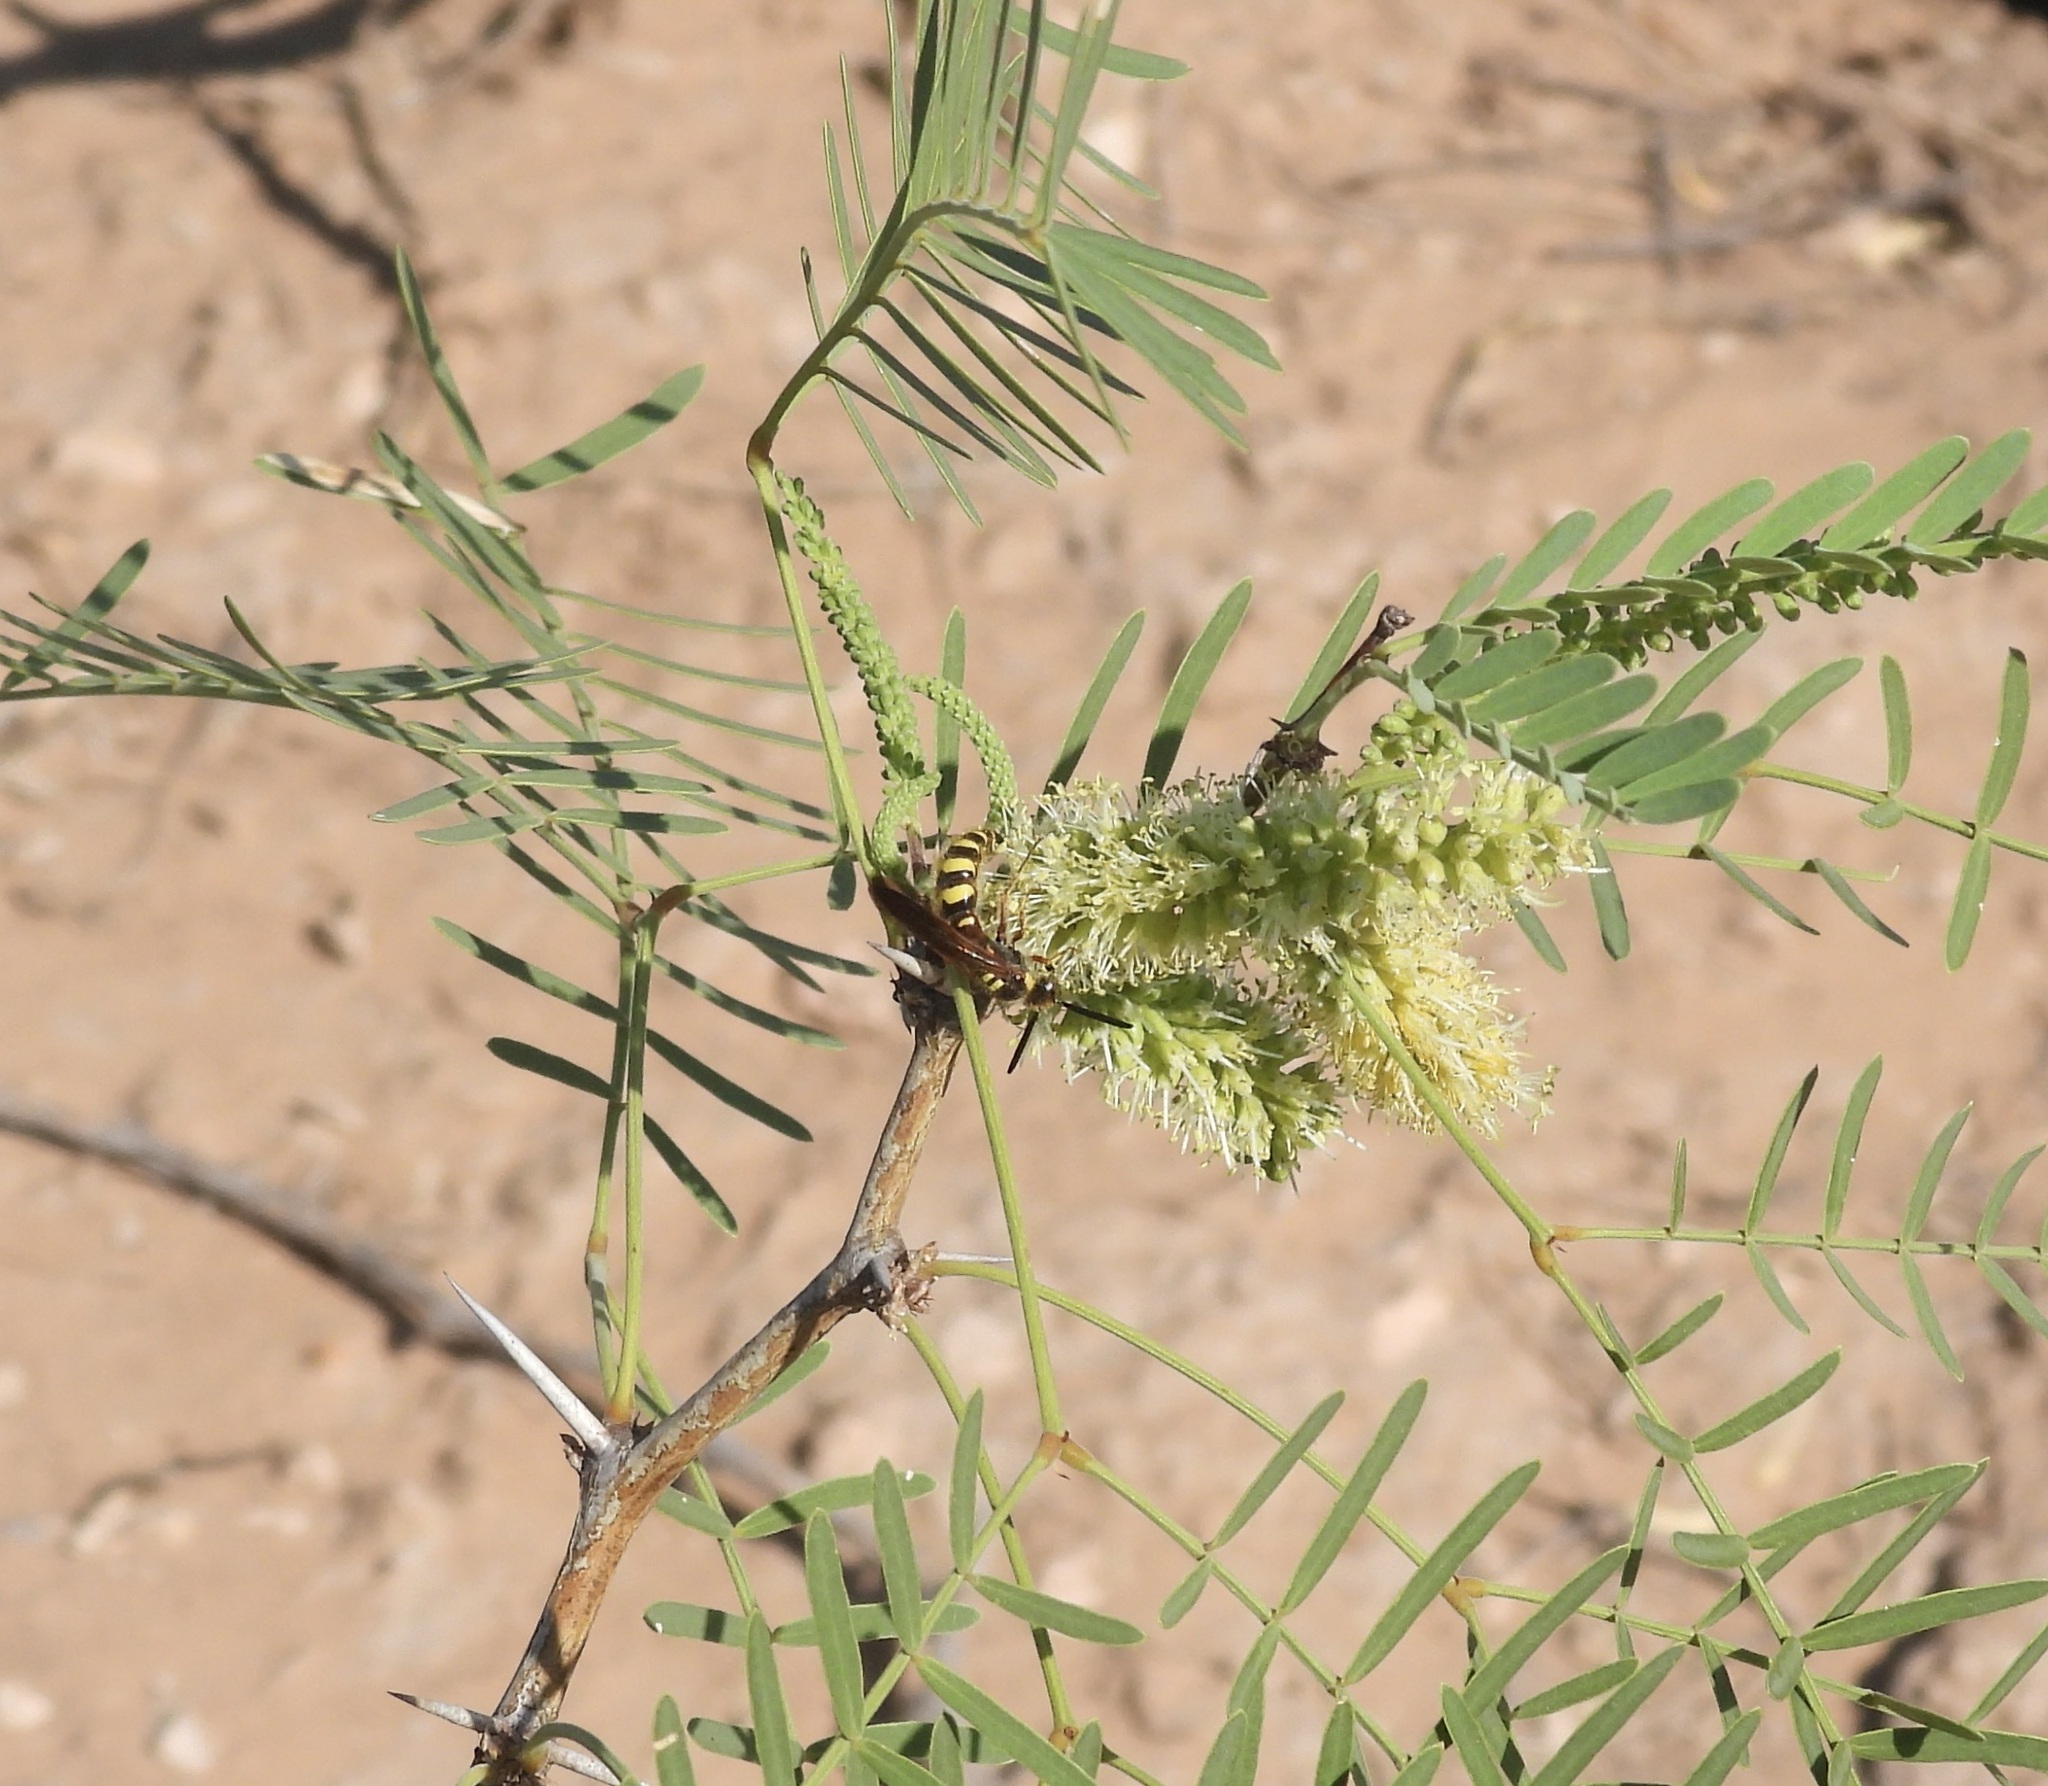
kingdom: Animalia
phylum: Arthropoda
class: Insecta
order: Hymenoptera
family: Scoliidae
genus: Colpa
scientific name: Colpa octomaculata
